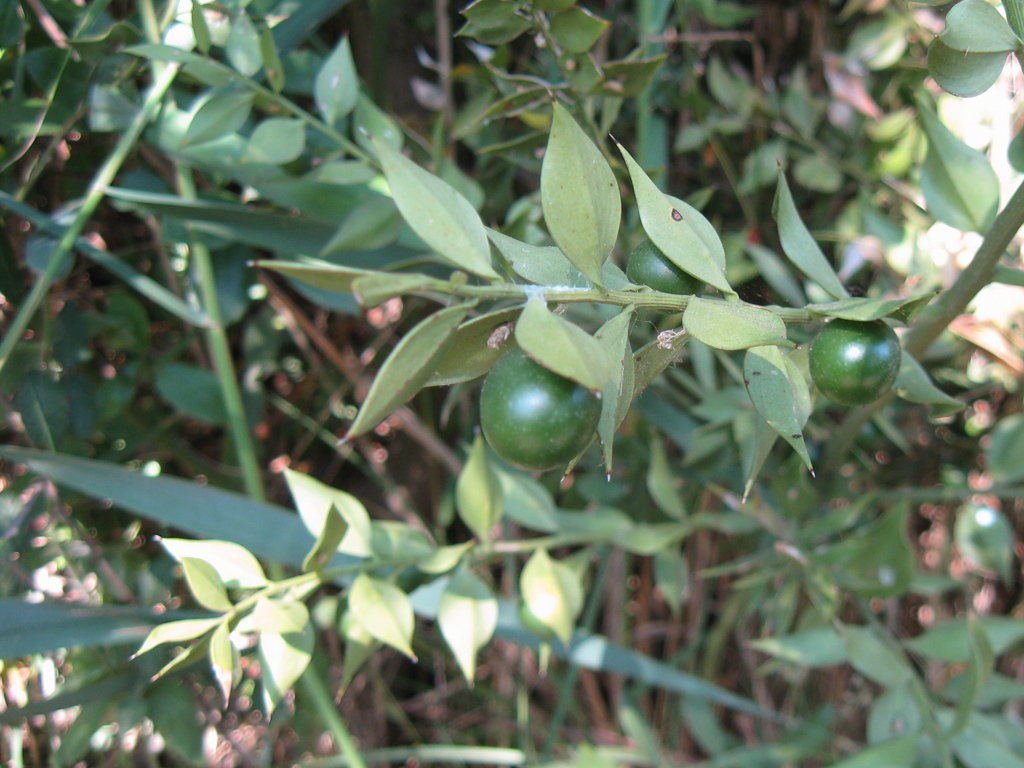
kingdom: Plantae
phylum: Tracheophyta
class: Liliopsida
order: Asparagales
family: Asparagaceae
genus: Ruscus
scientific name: Ruscus aculeatus
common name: Butcher's-broom
